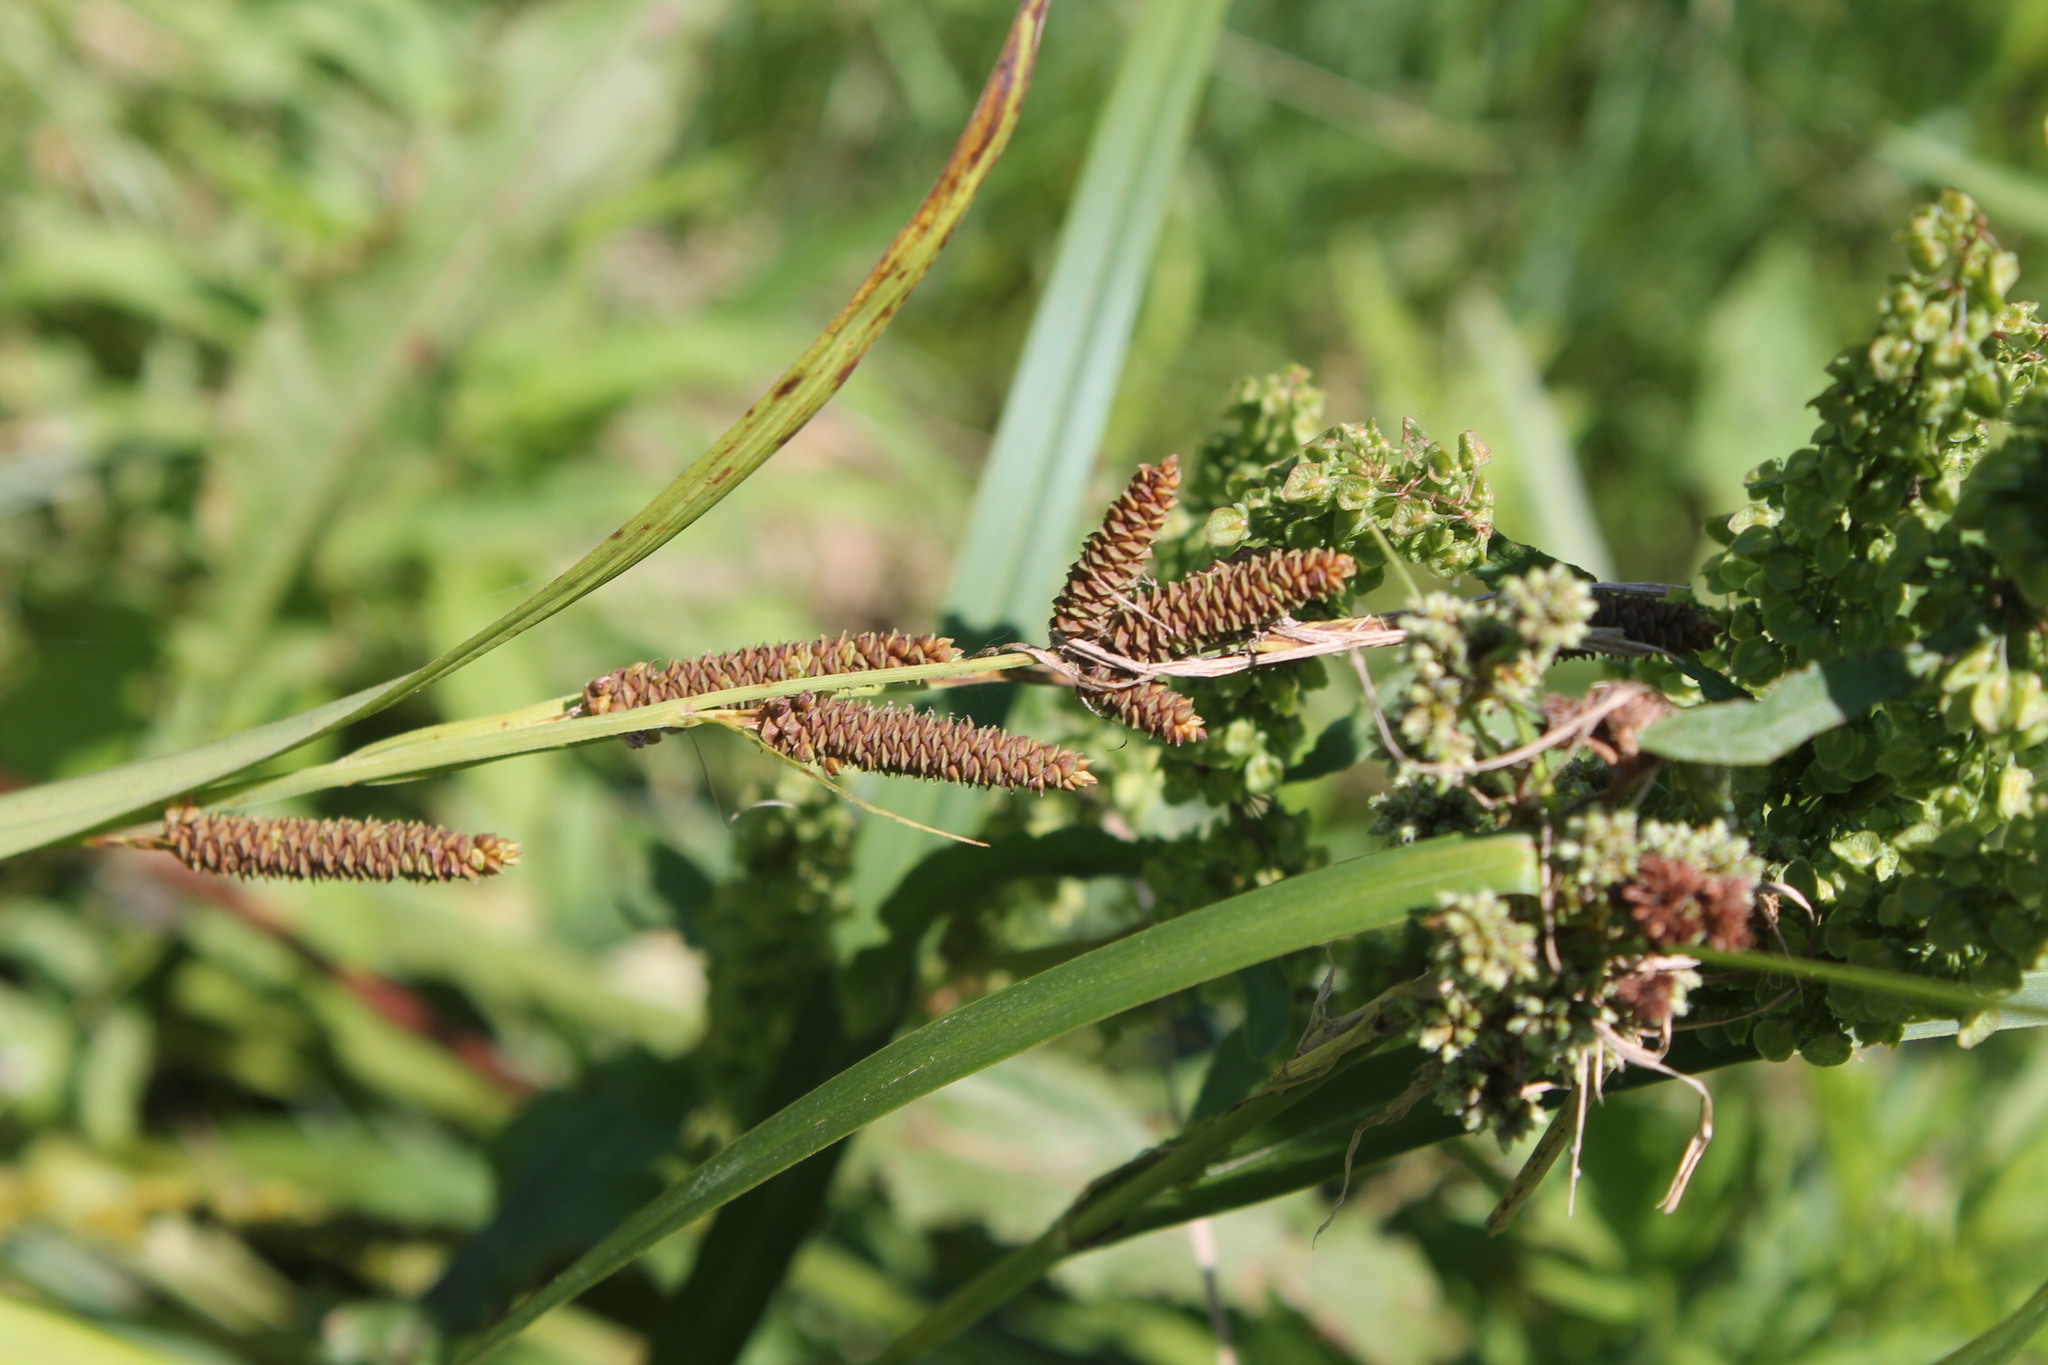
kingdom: Plantae
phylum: Tracheophyta
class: Liliopsida
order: Poales
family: Cyperaceae
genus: Carex
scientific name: Carex shortiana
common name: Short's sedge
